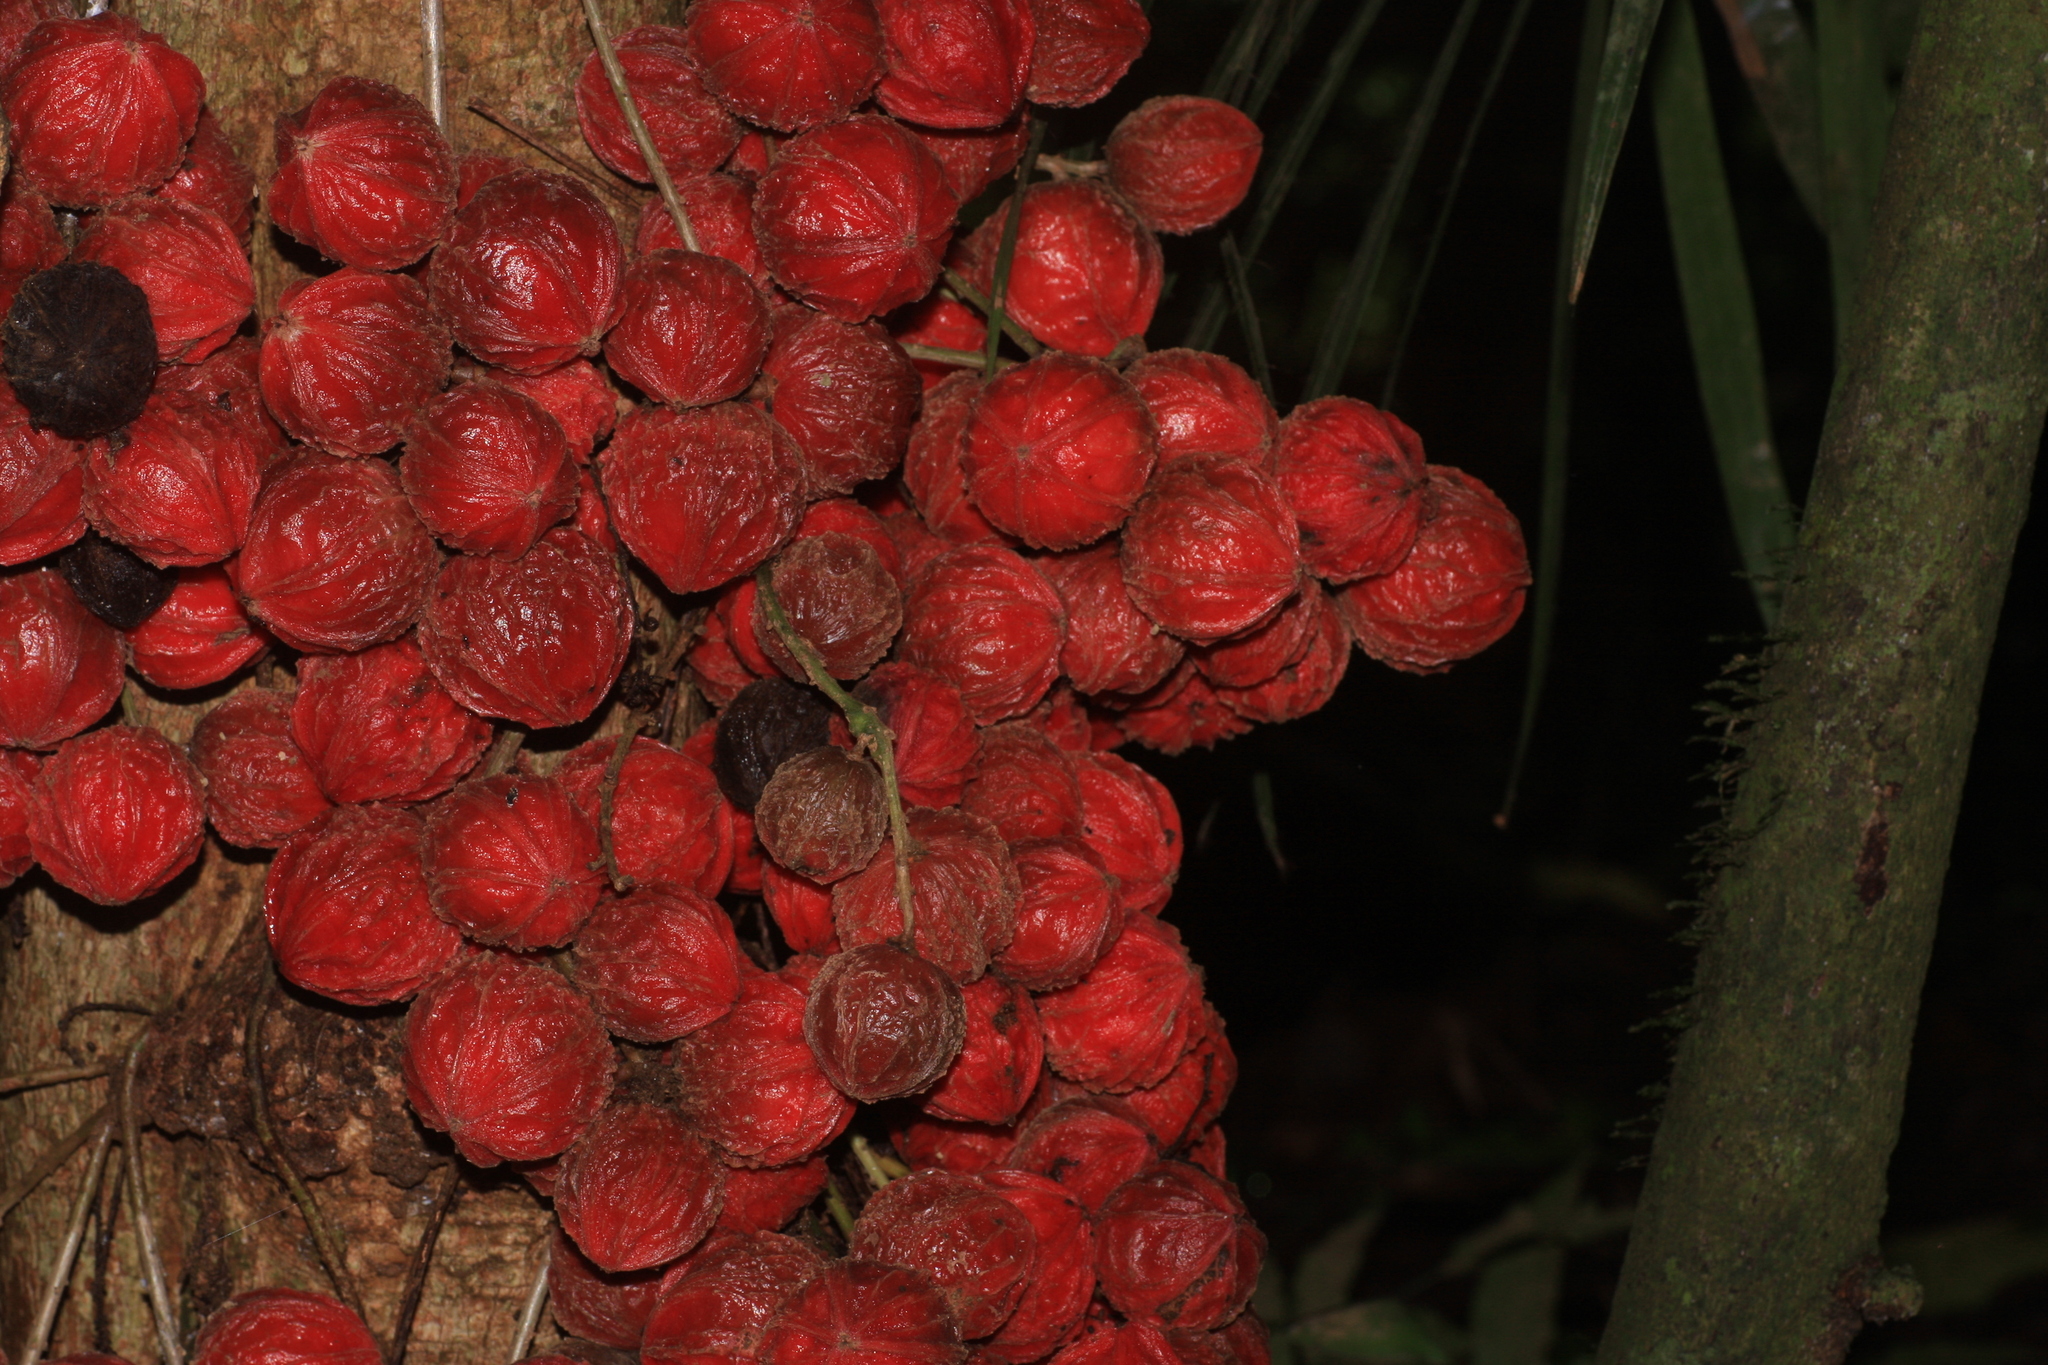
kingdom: Plantae
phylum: Tracheophyta
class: Magnoliopsida
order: Malpighiales
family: Phyllanthaceae
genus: Baccaurea
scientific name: Baccaurea courtallensis
